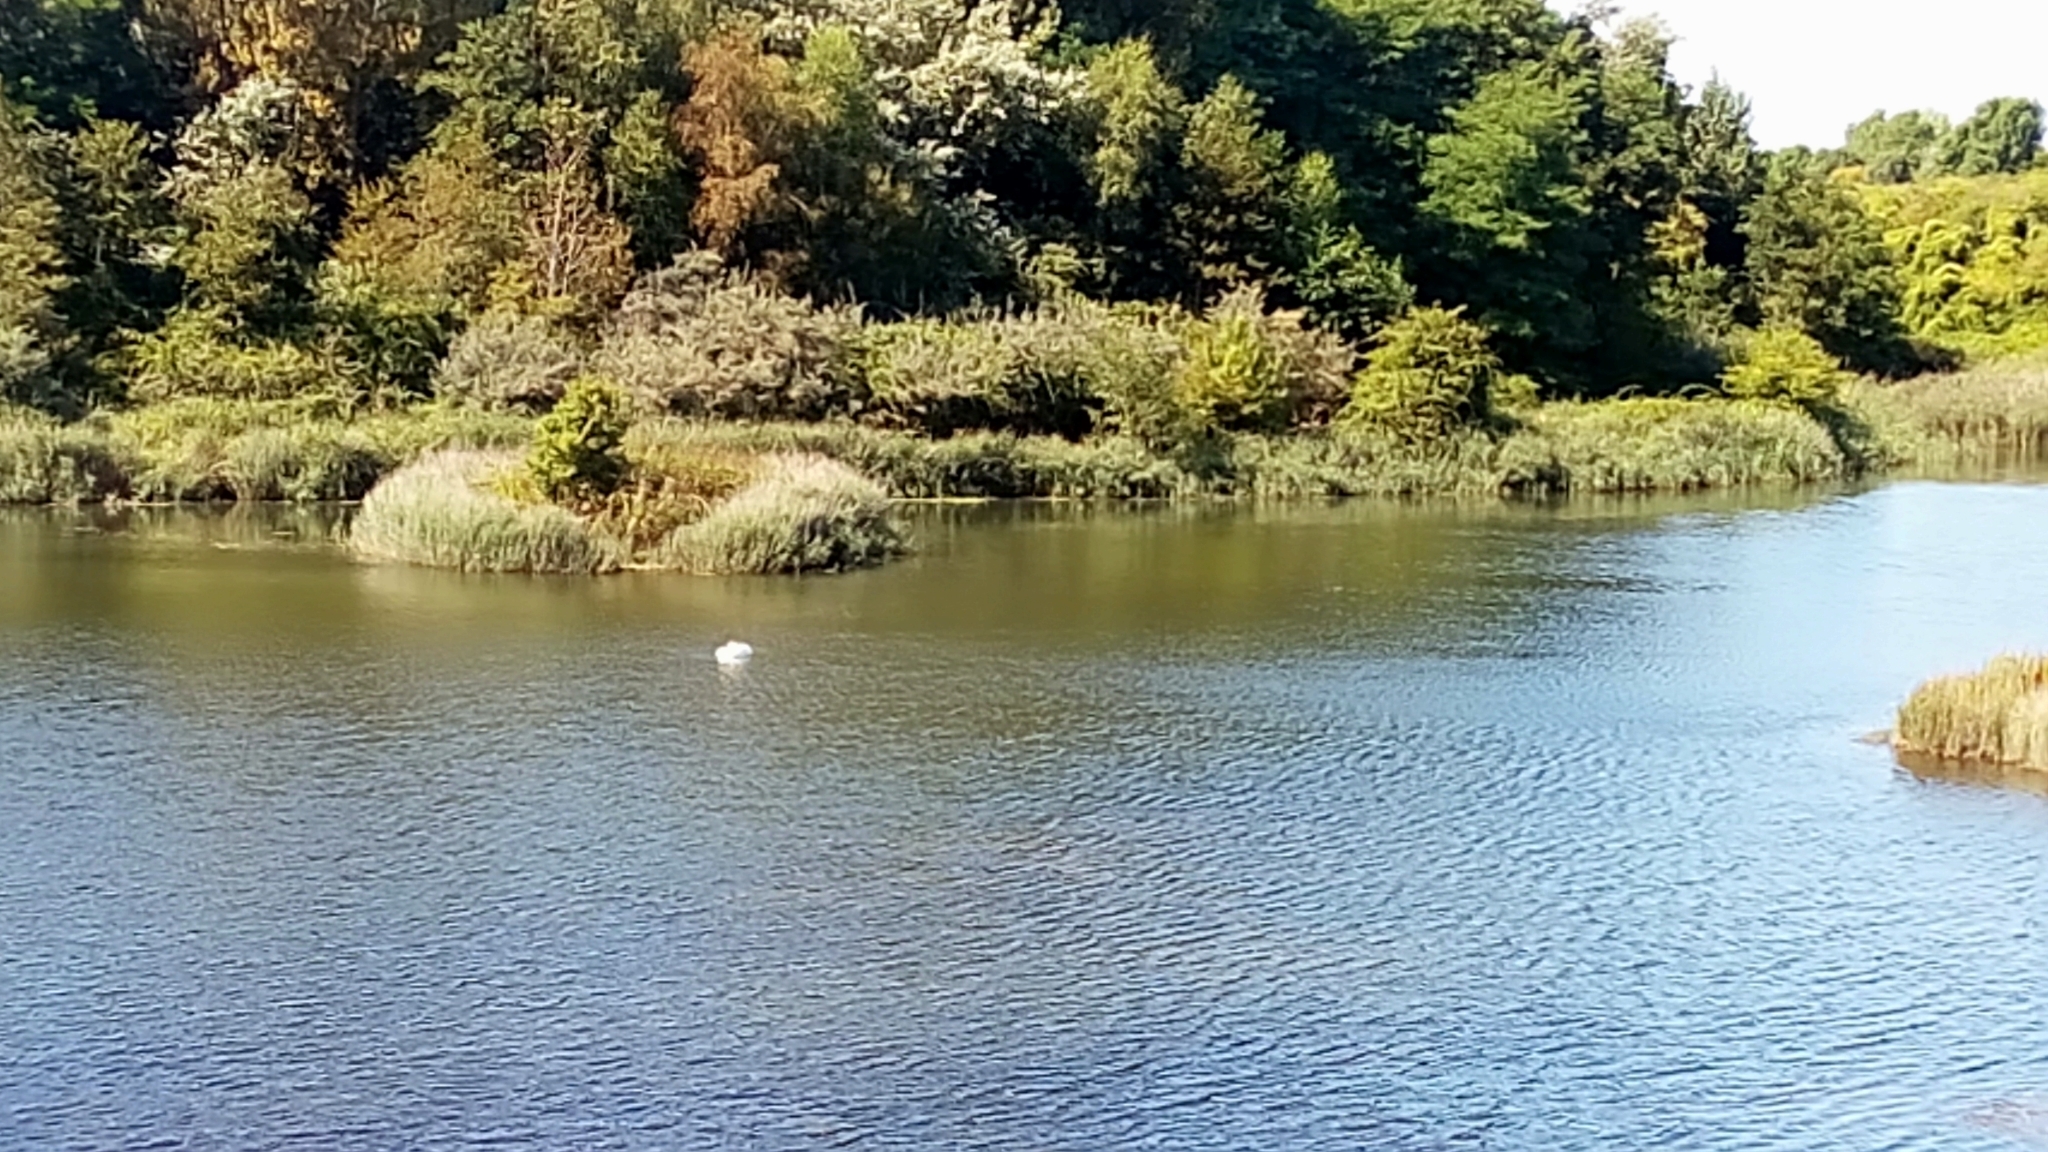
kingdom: Animalia
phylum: Chordata
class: Aves
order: Anseriformes
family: Anatidae
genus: Cygnus
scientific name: Cygnus olor
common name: Mute swan
